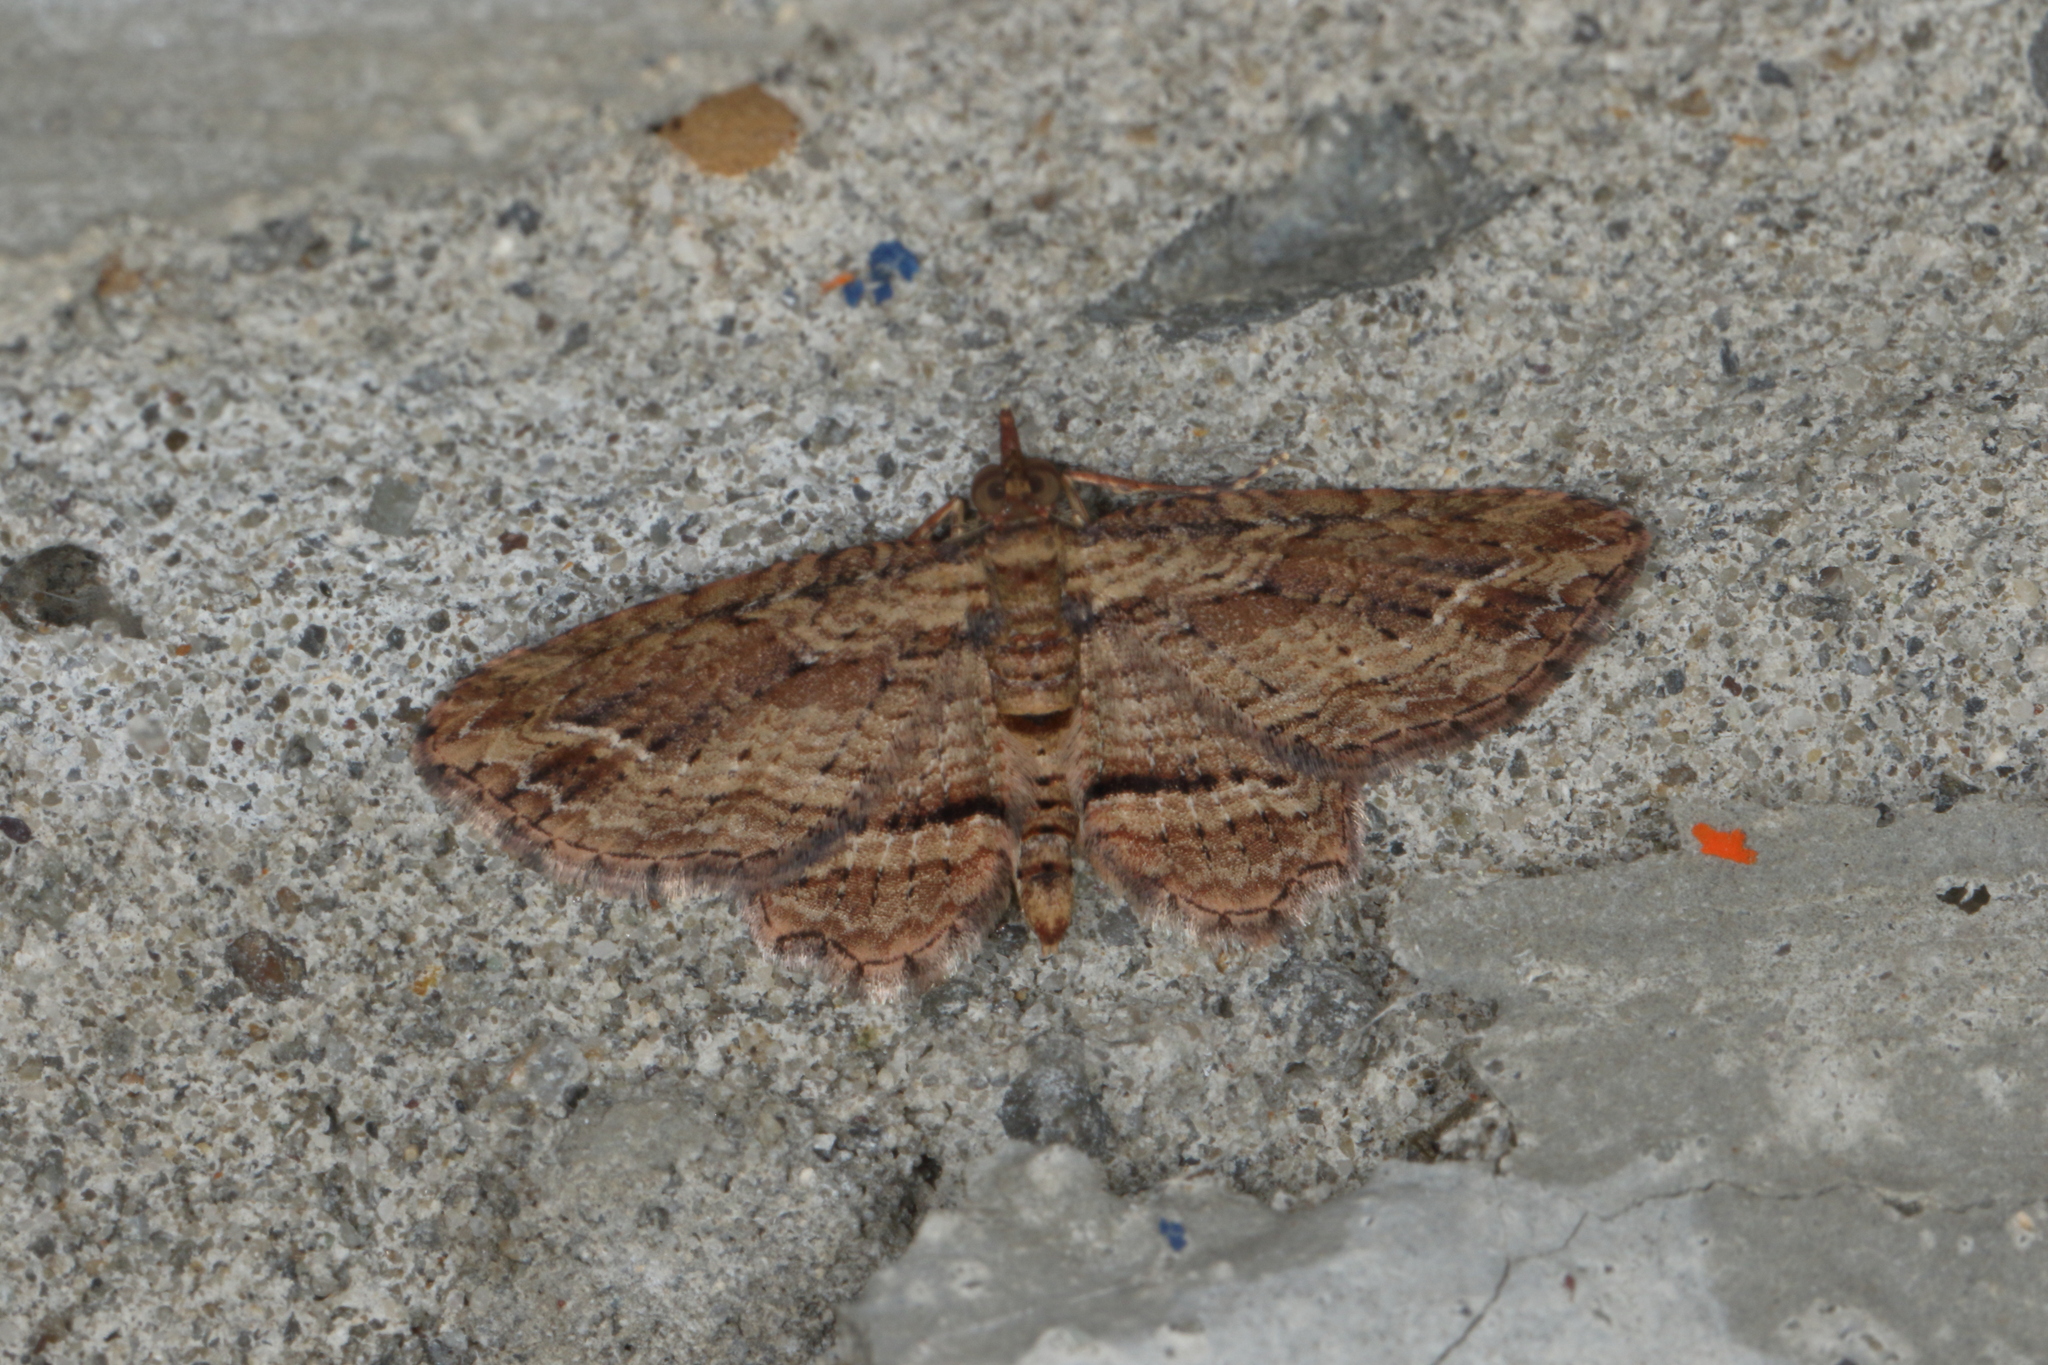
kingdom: Animalia
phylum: Arthropoda
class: Insecta
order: Lepidoptera
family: Geometridae
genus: Chloroclystis
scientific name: Chloroclystis filata
